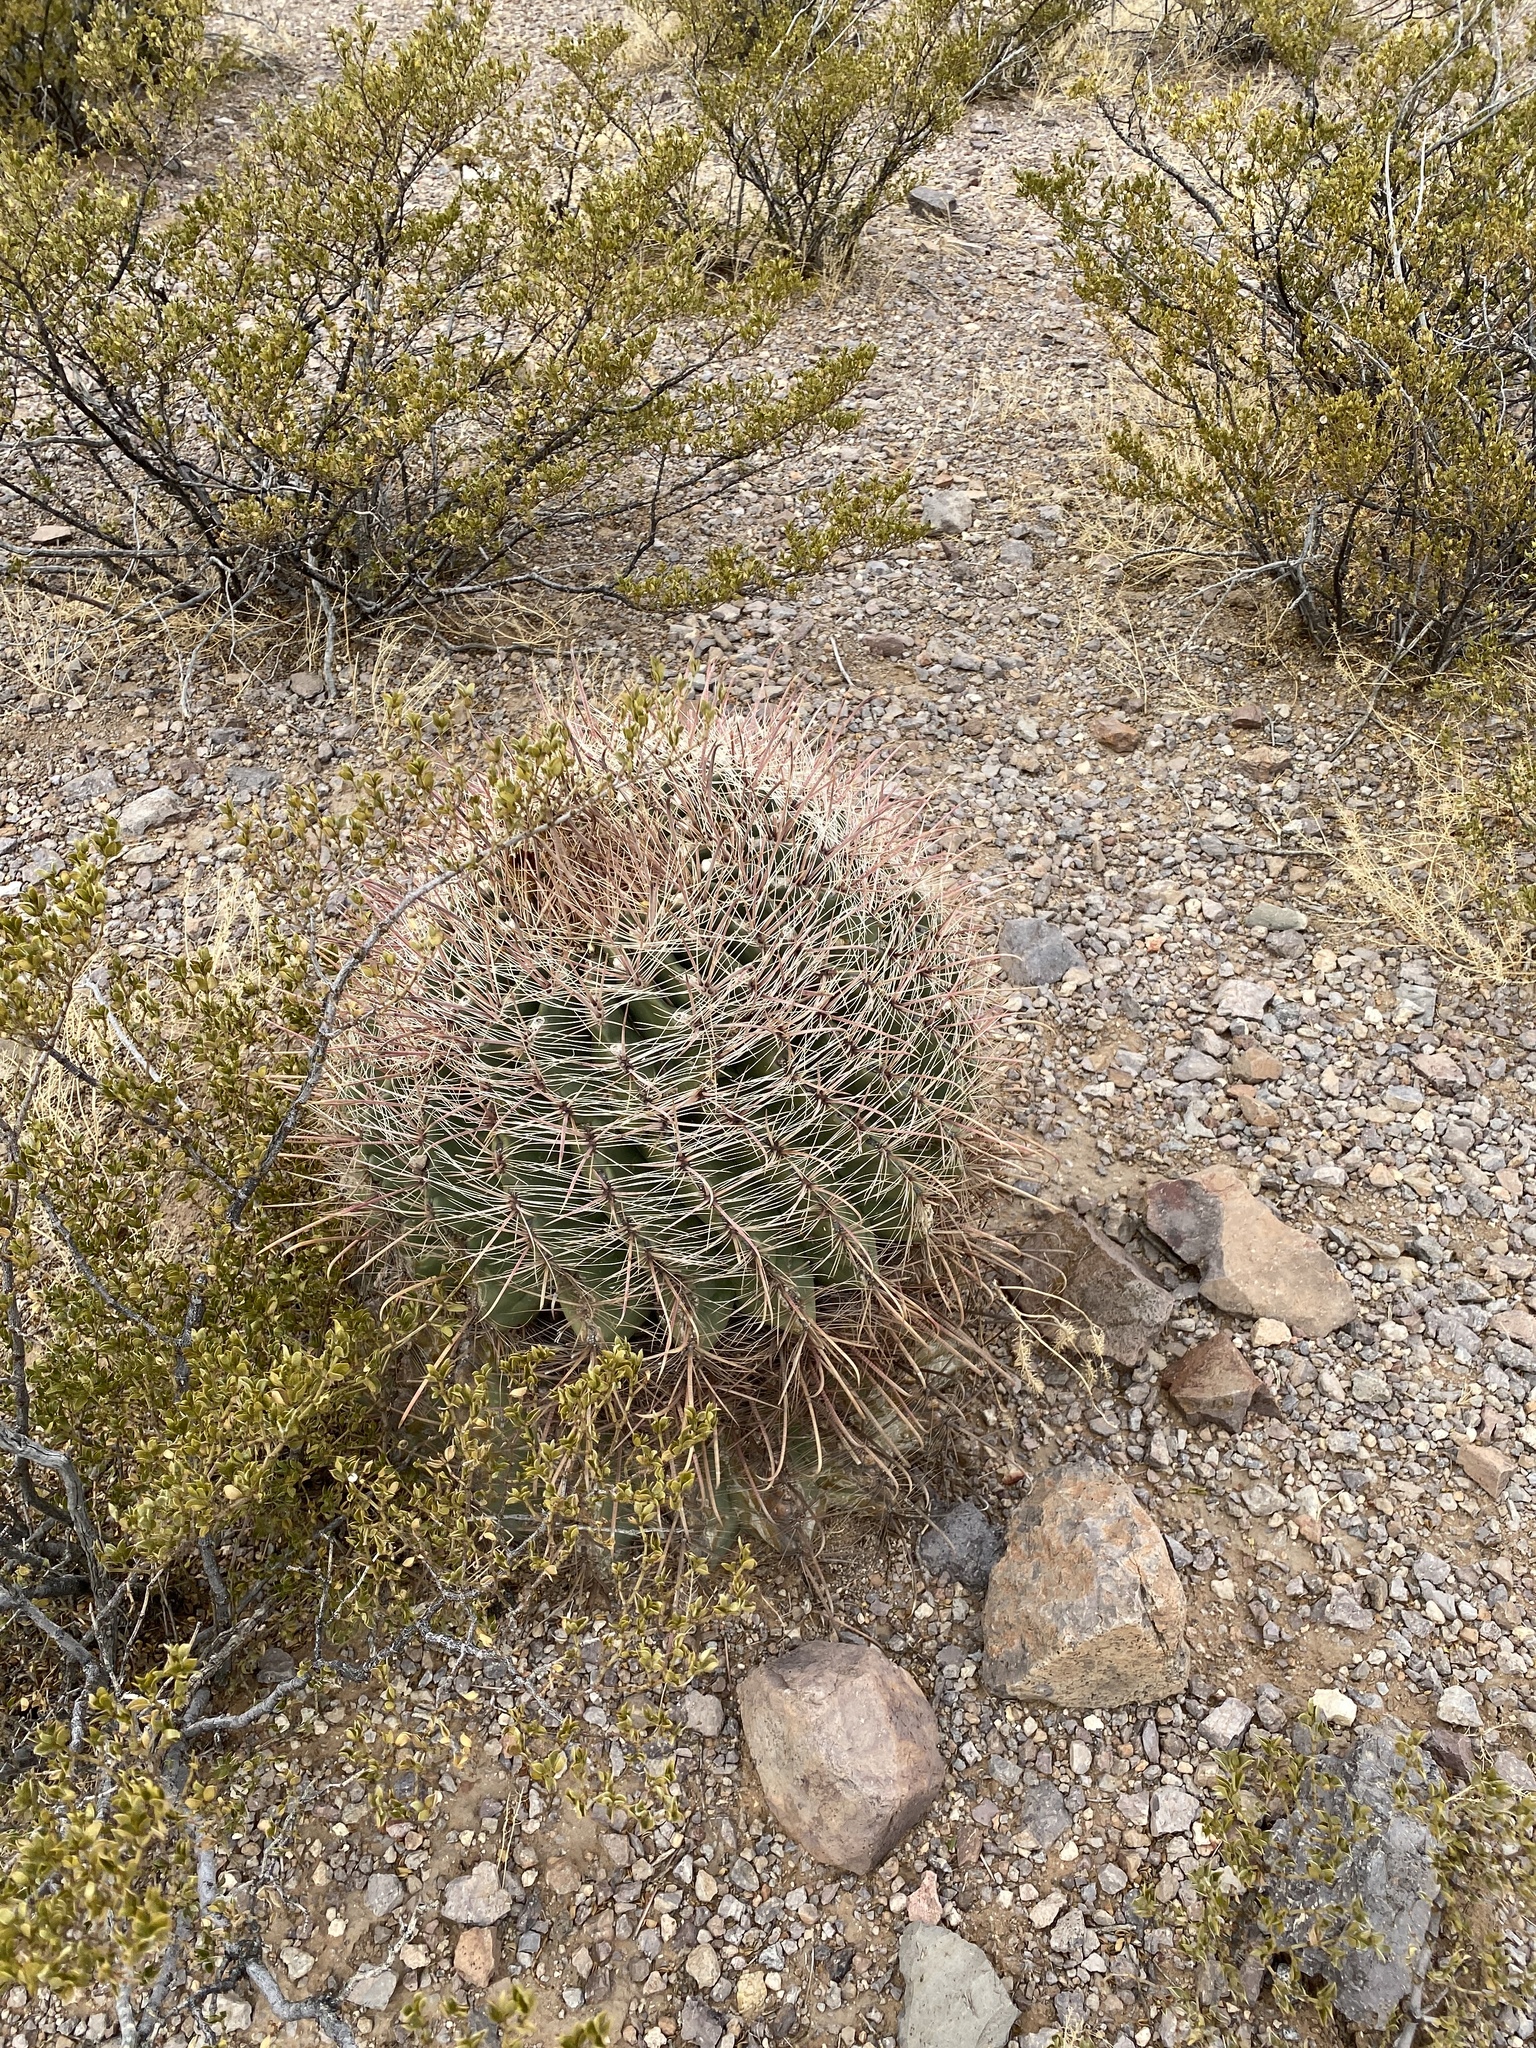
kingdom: Plantae
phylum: Tracheophyta
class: Magnoliopsida
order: Caryophyllales
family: Cactaceae
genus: Ferocactus
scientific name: Ferocactus wislizeni
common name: Candy barrel cactus
